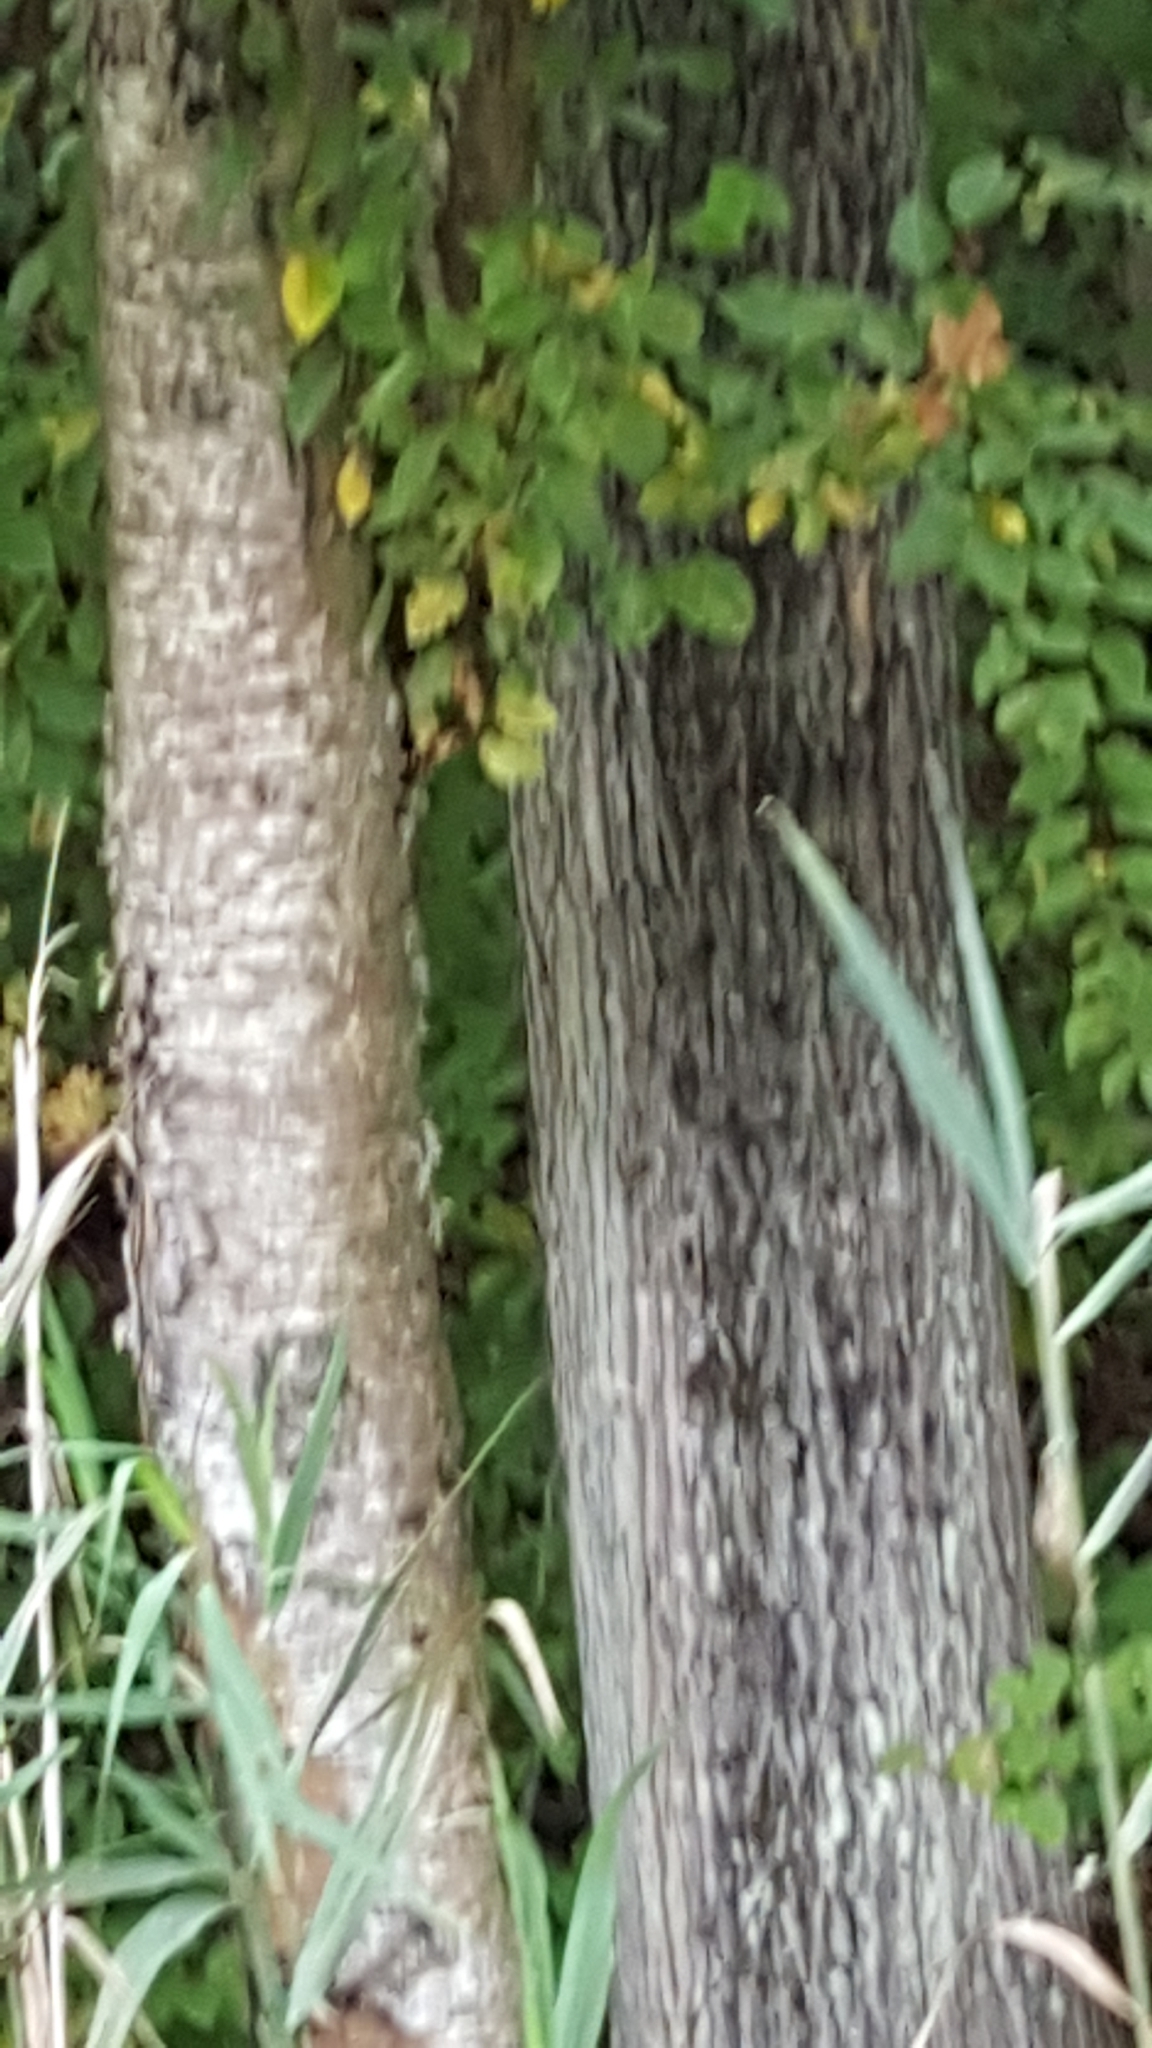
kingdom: Plantae
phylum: Tracheophyta
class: Magnoliopsida
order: Fagales
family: Betulaceae
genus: Betula
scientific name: Betula alleghaniensis
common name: Yellow birch
